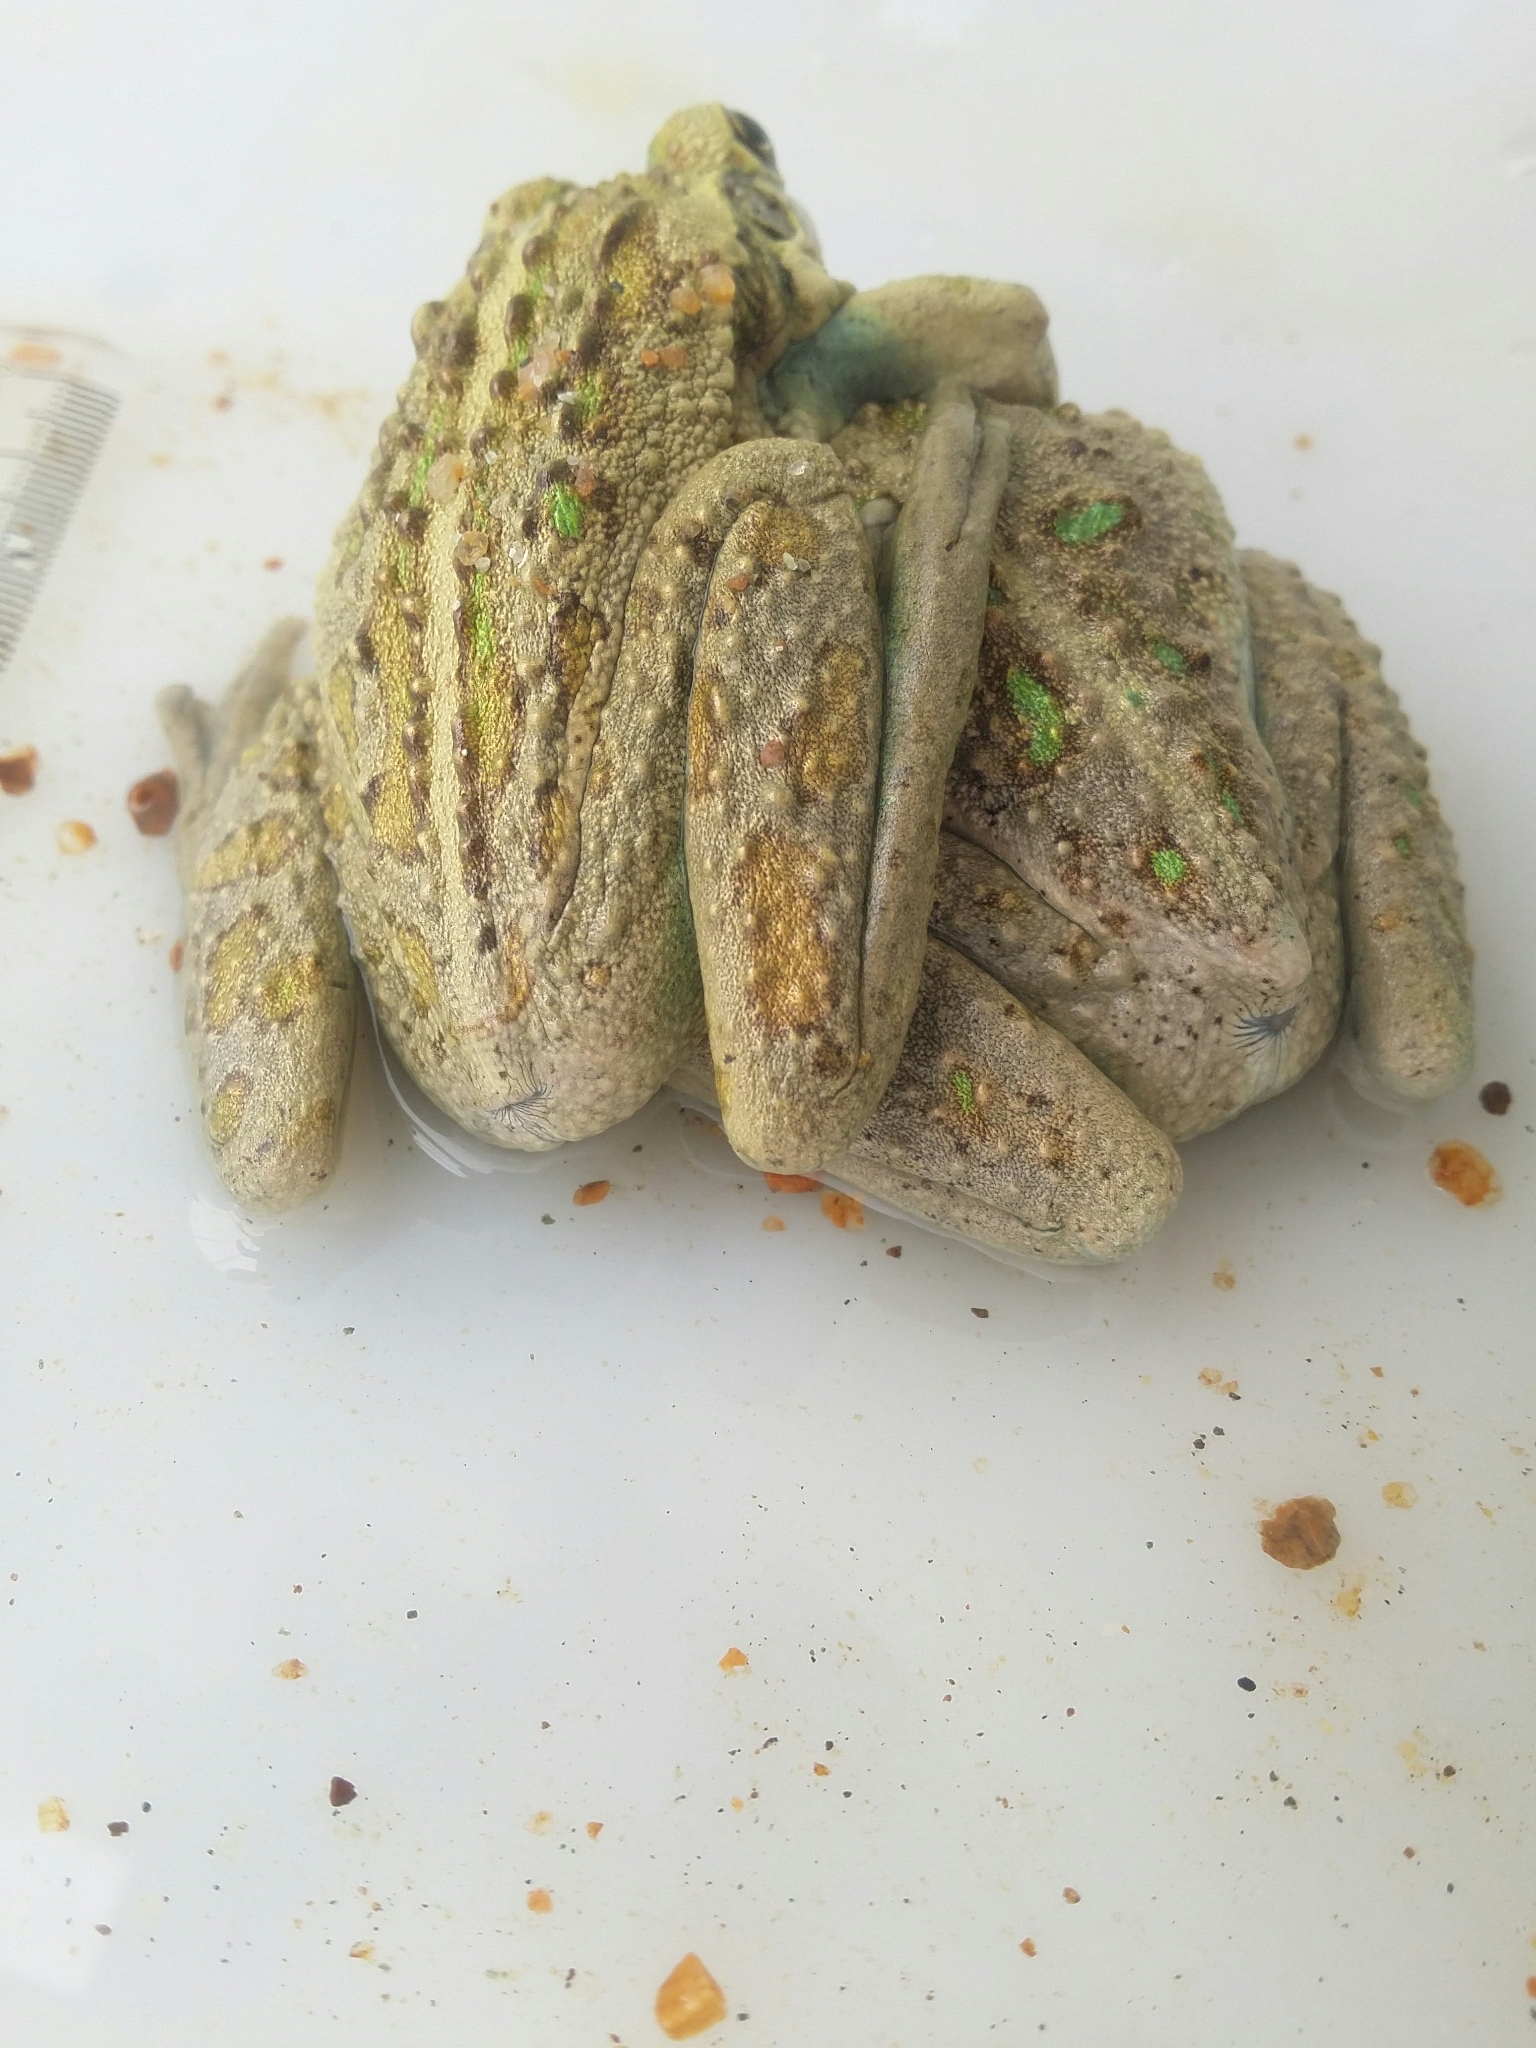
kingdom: Animalia
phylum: Chordata
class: Amphibia
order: Anura
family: Pelodryadidae
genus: Ranoidea
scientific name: Ranoidea moorei
